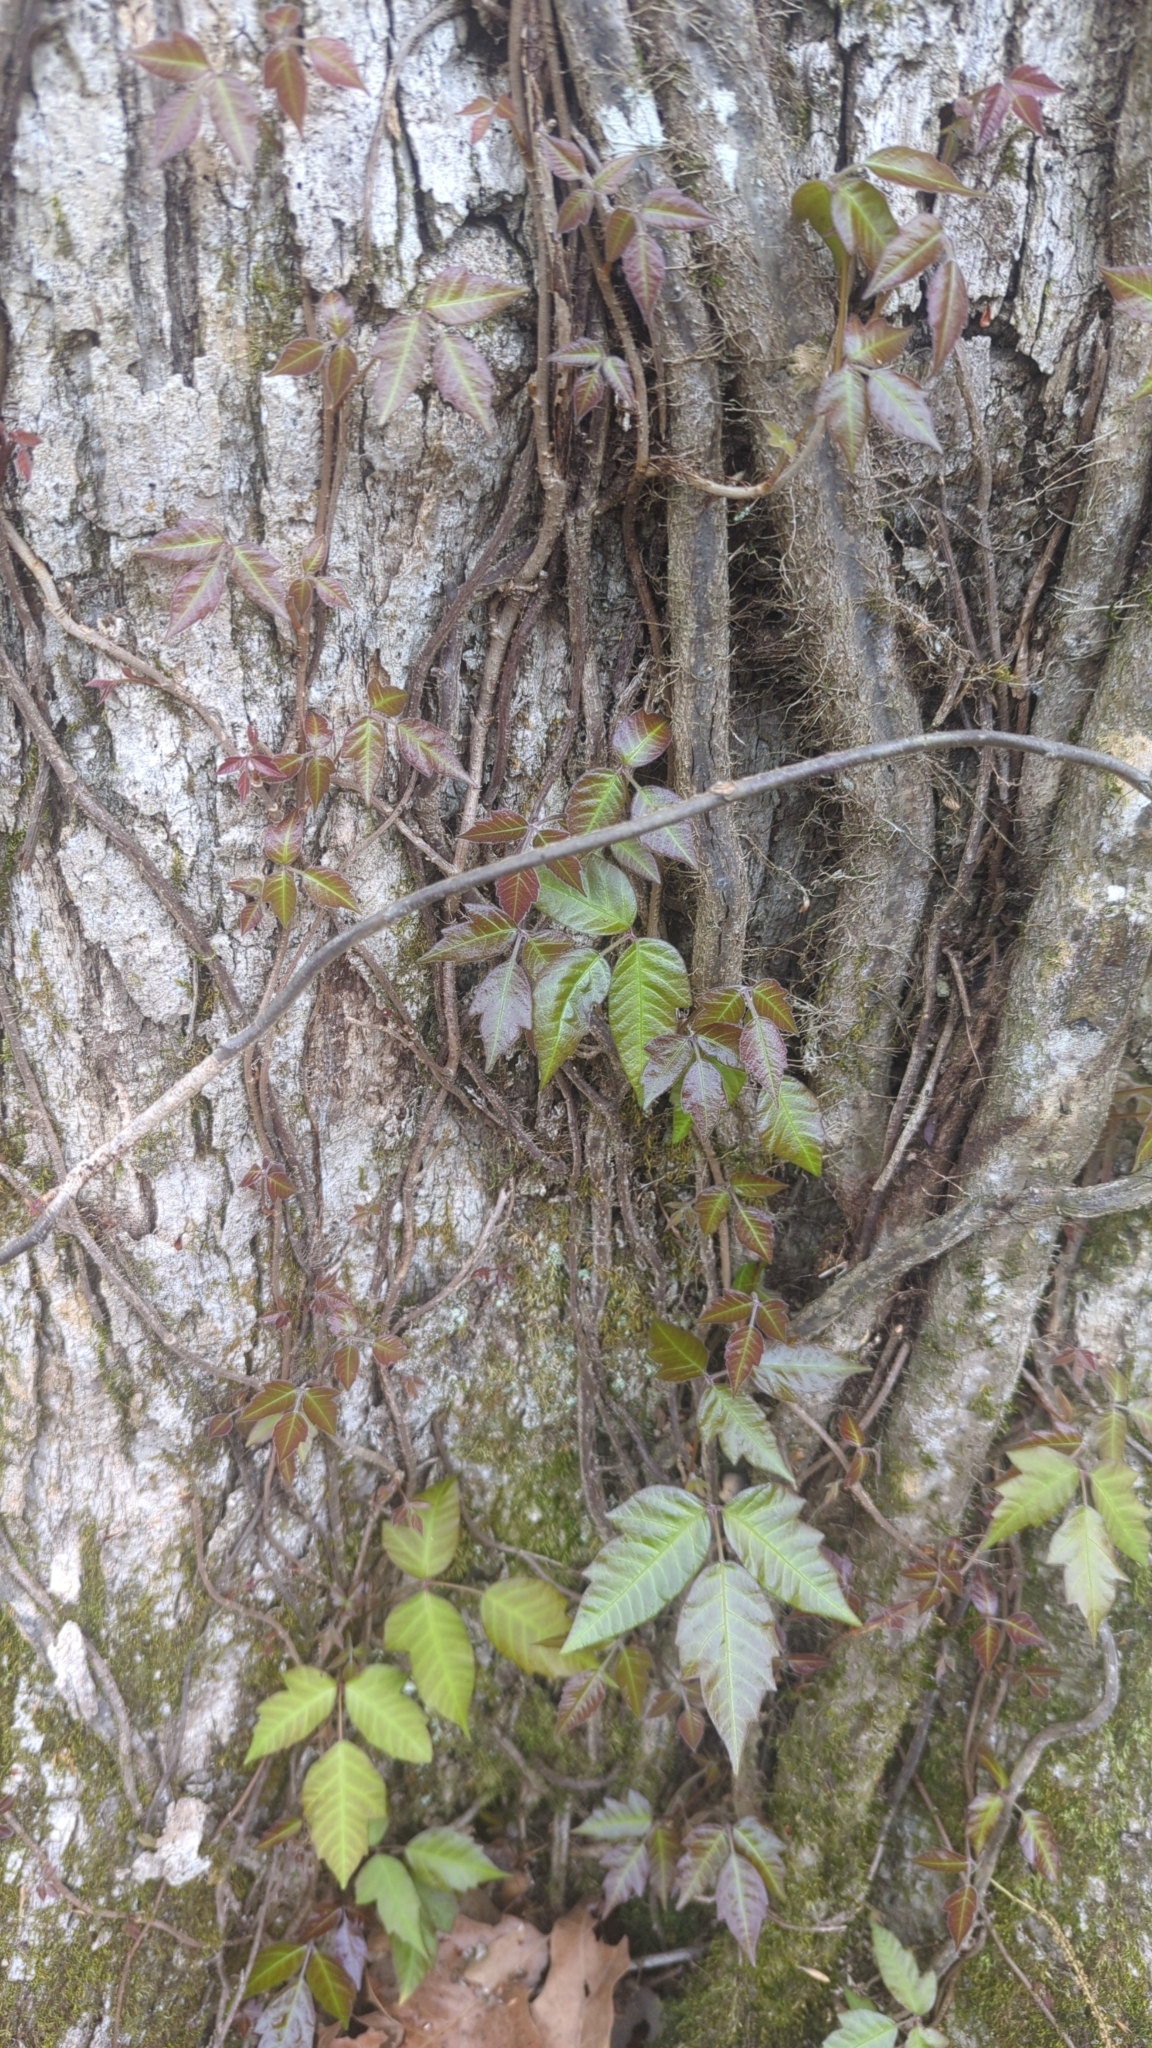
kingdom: Plantae
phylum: Tracheophyta
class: Magnoliopsida
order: Sapindales
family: Anacardiaceae
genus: Toxicodendron
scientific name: Toxicodendron radicans
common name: Poison ivy
